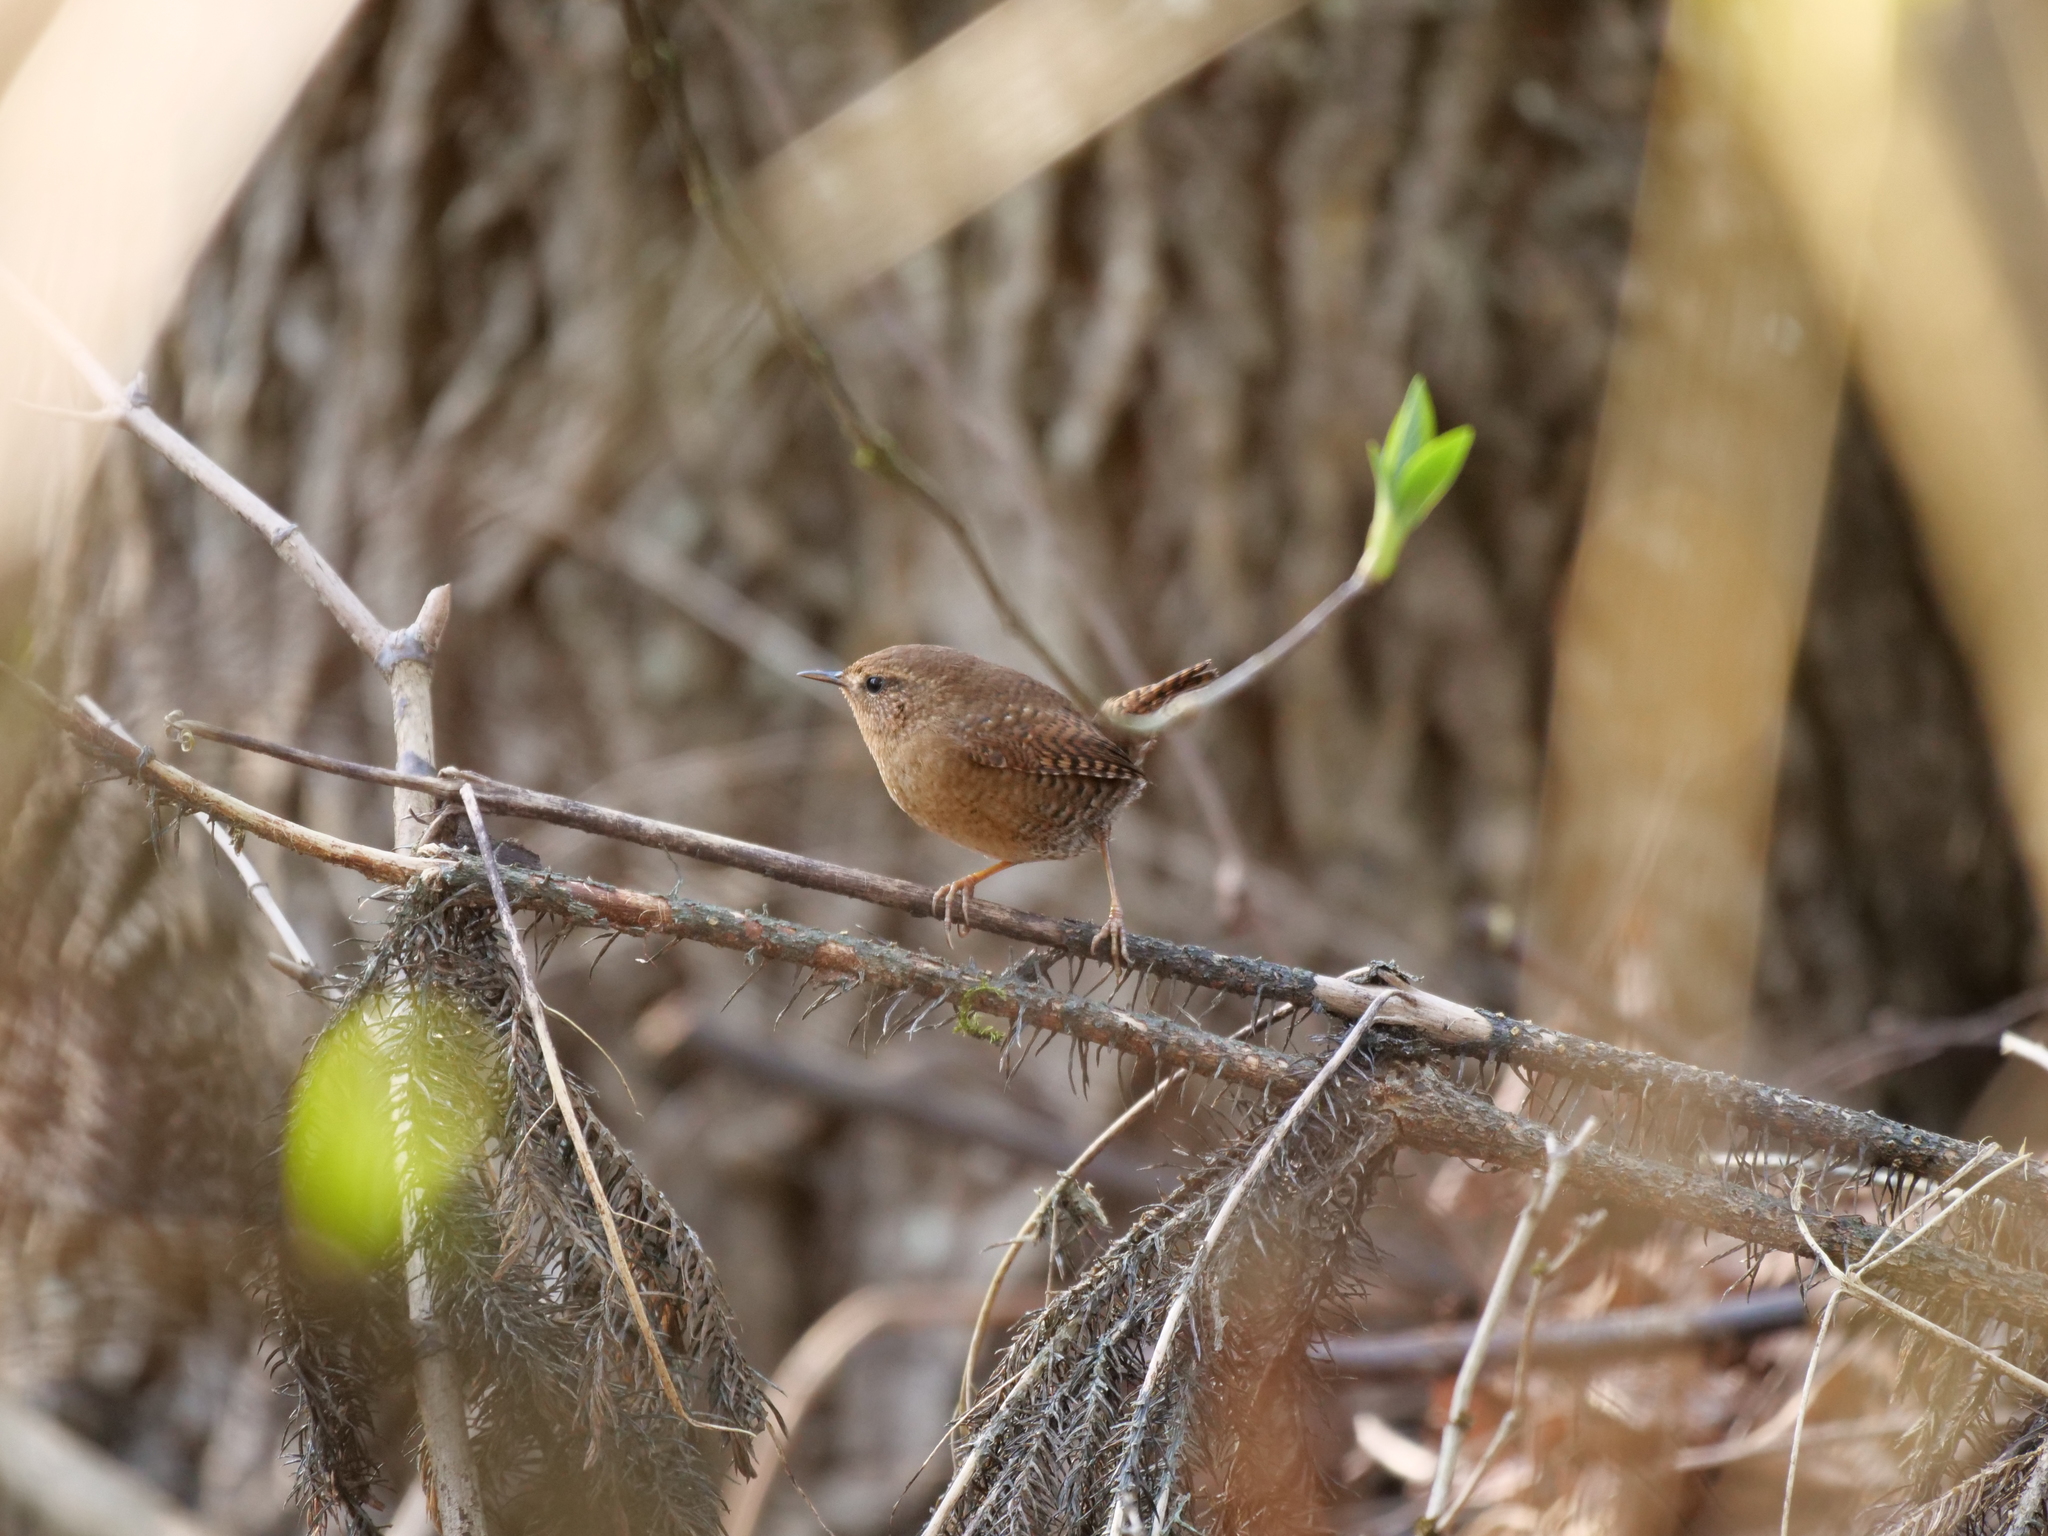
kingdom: Animalia
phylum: Chordata
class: Aves
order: Passeriformes
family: Troglodytidae
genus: Troglodytes
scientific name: Troglodytes pacificus
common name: Pacific wren
